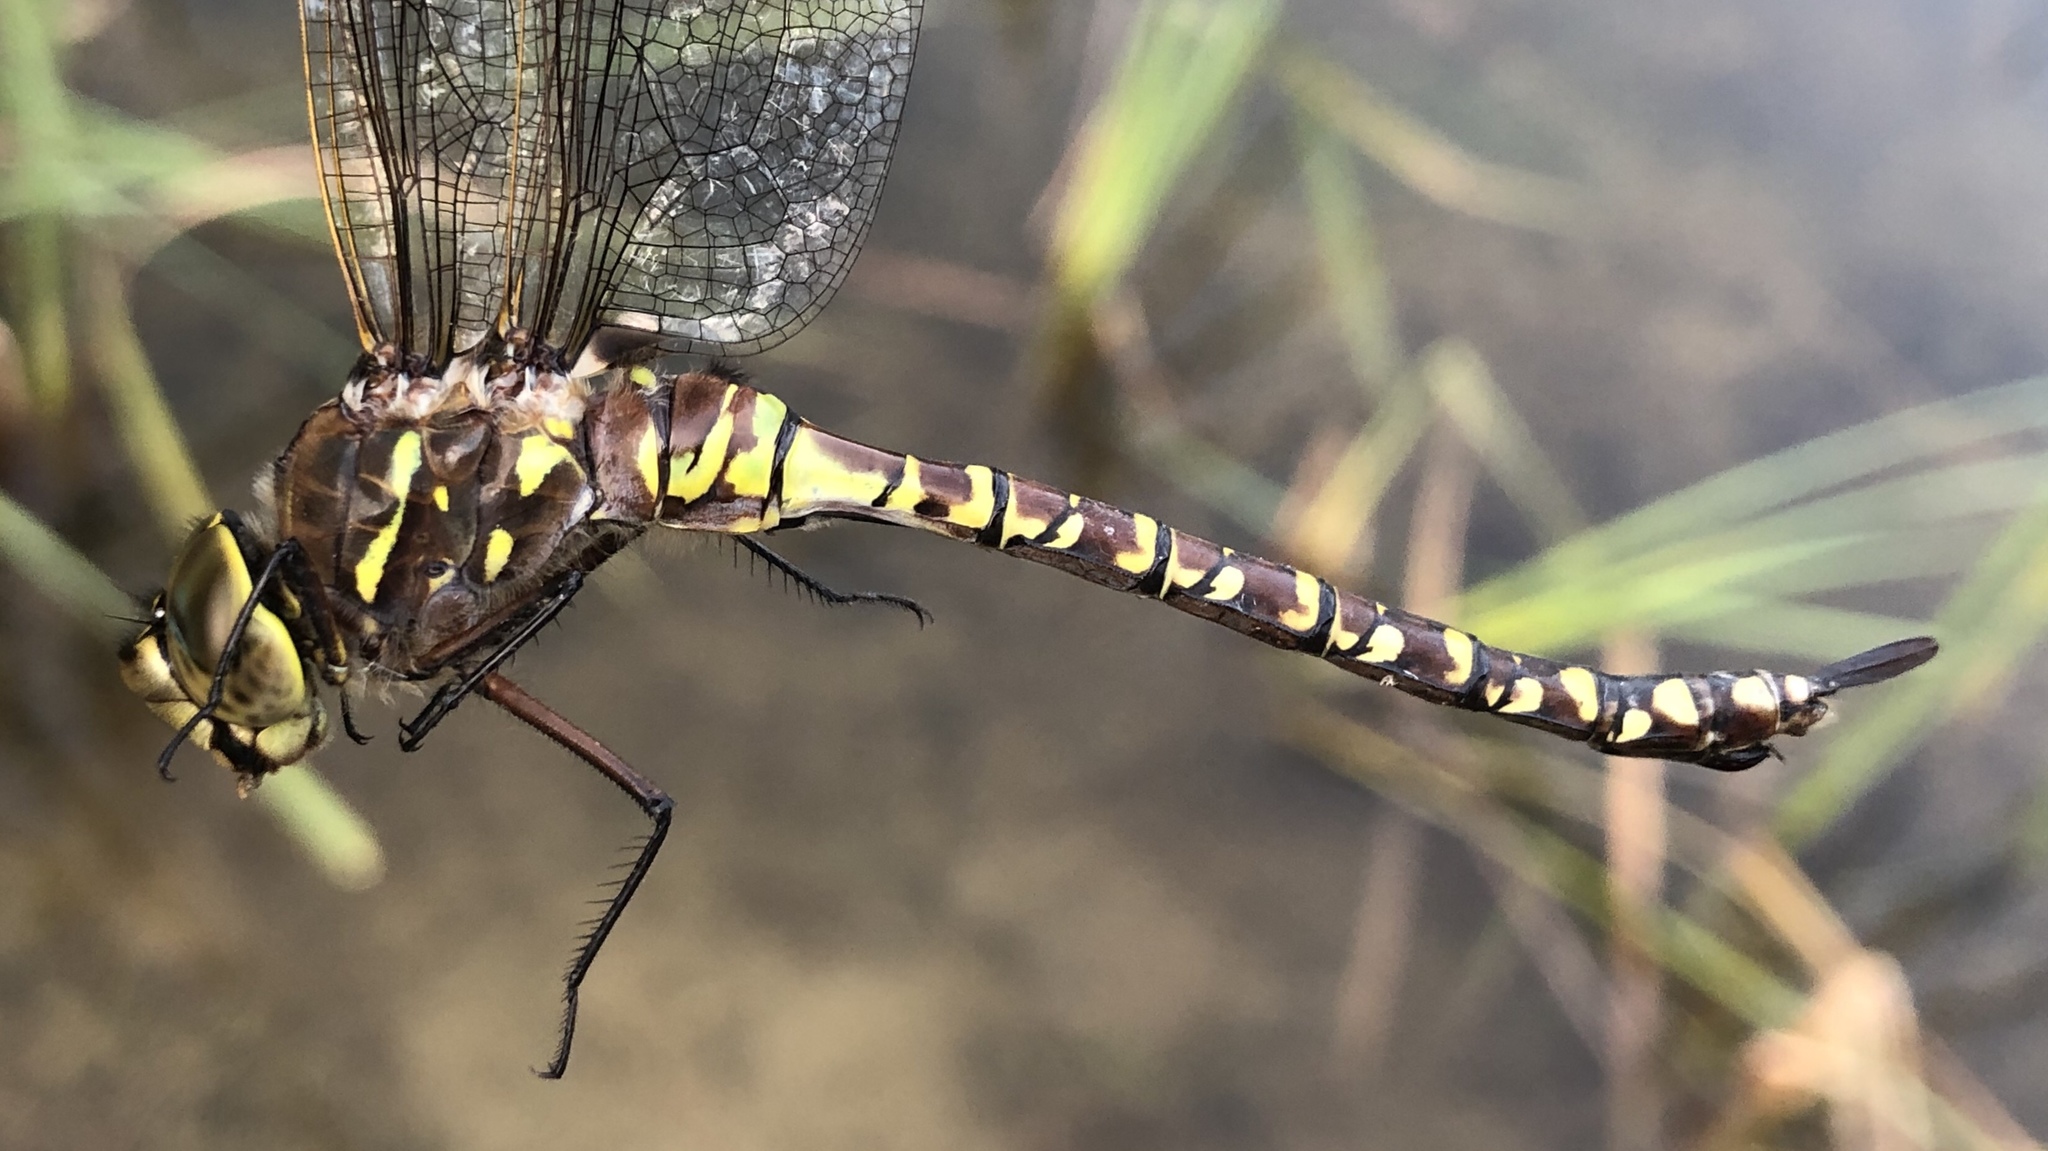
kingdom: Animalia
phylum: Arthropoda
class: Insecta
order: Odonata
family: Aeshnidae
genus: Aeshna
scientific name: Aeshna interrupta
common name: Variable darner
